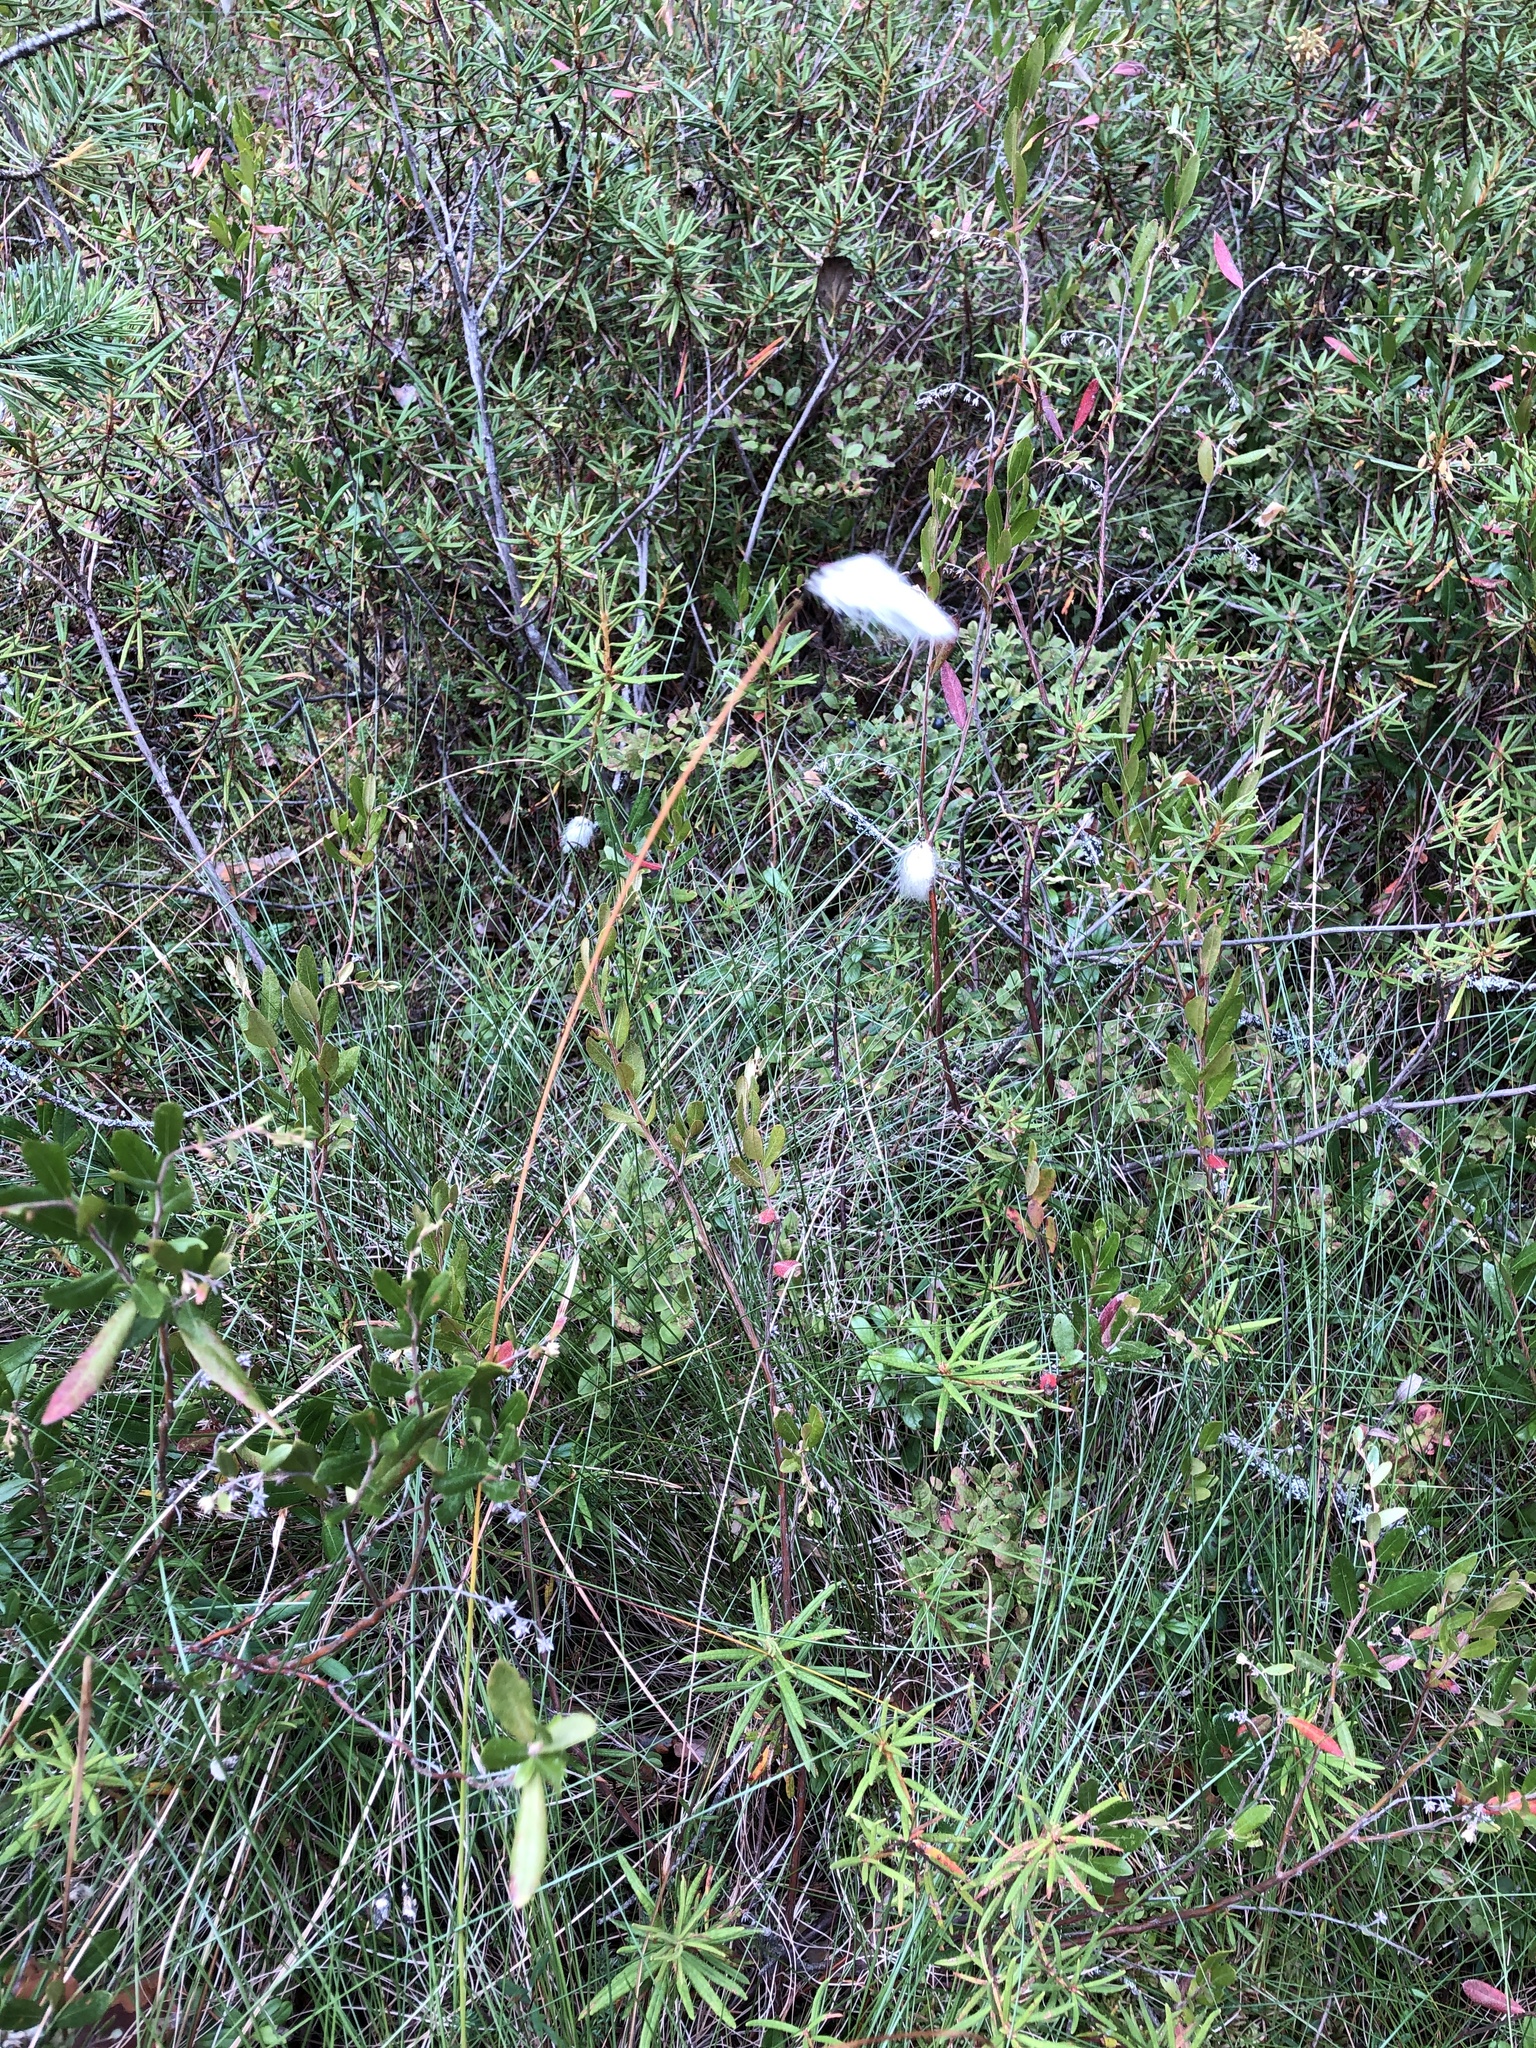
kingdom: Plantae
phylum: Tracheophyta
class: Liliopsida
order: Poales
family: Cyperaceae
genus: Eriophorum
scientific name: Eriophorum vaginatum
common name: Hare's-tail cottongrass
